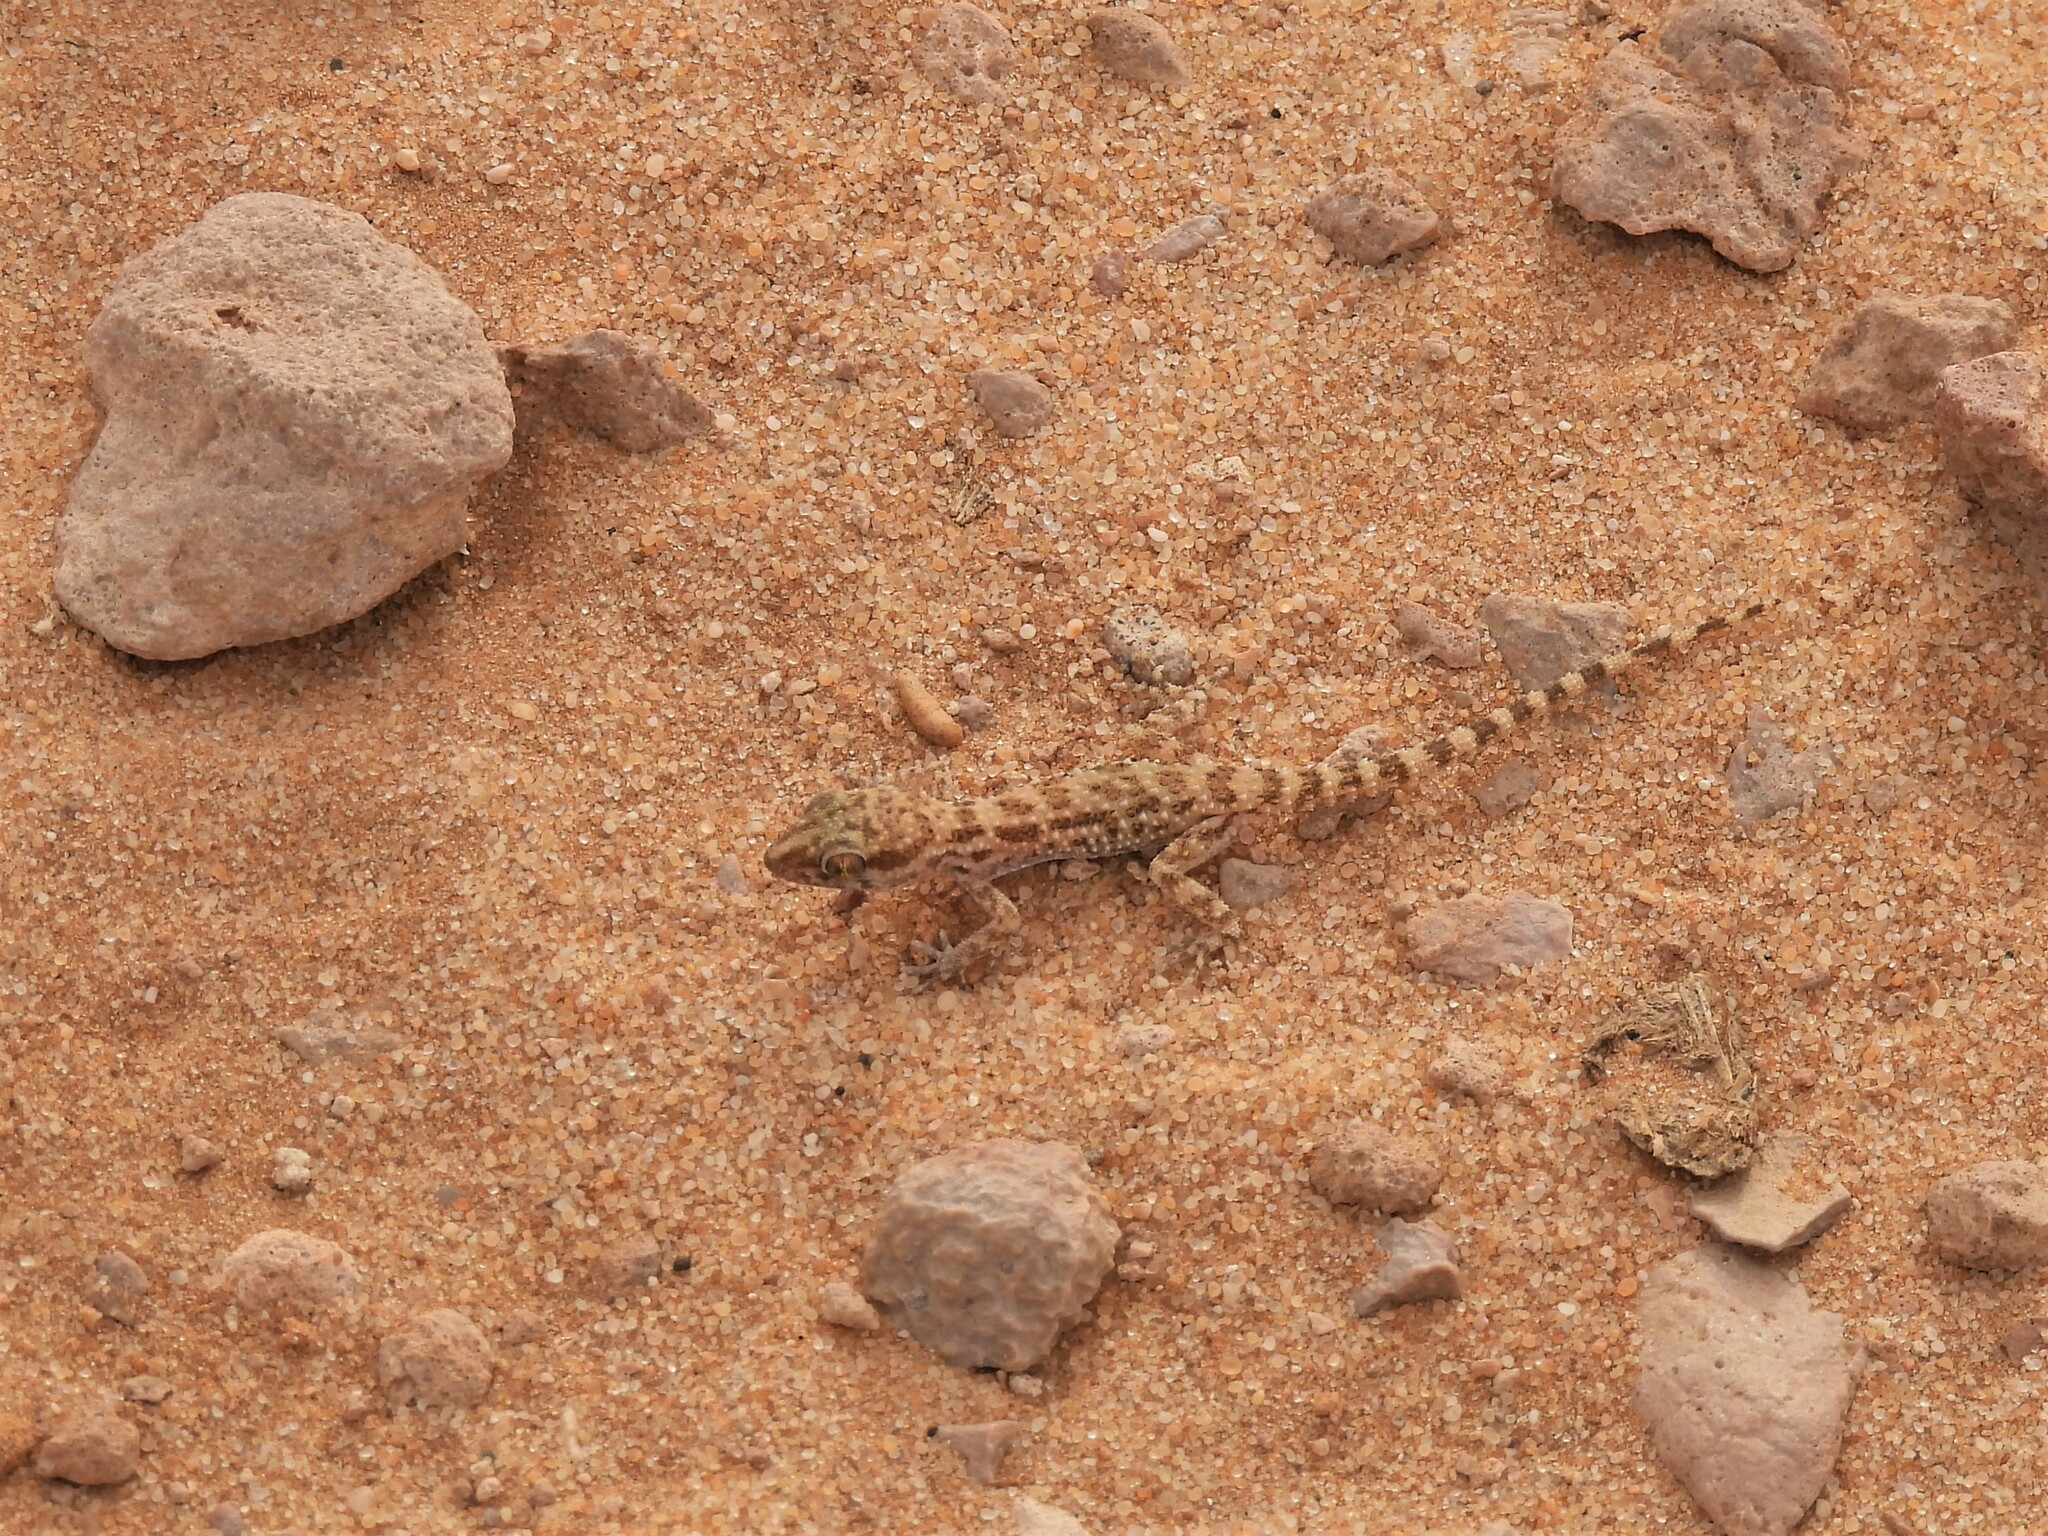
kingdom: Animalia
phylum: Chordata
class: Squamata
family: Gekkonidae
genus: Bunopus
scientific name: Bunopus tuberculatus
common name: Southern tuberculated gecko
